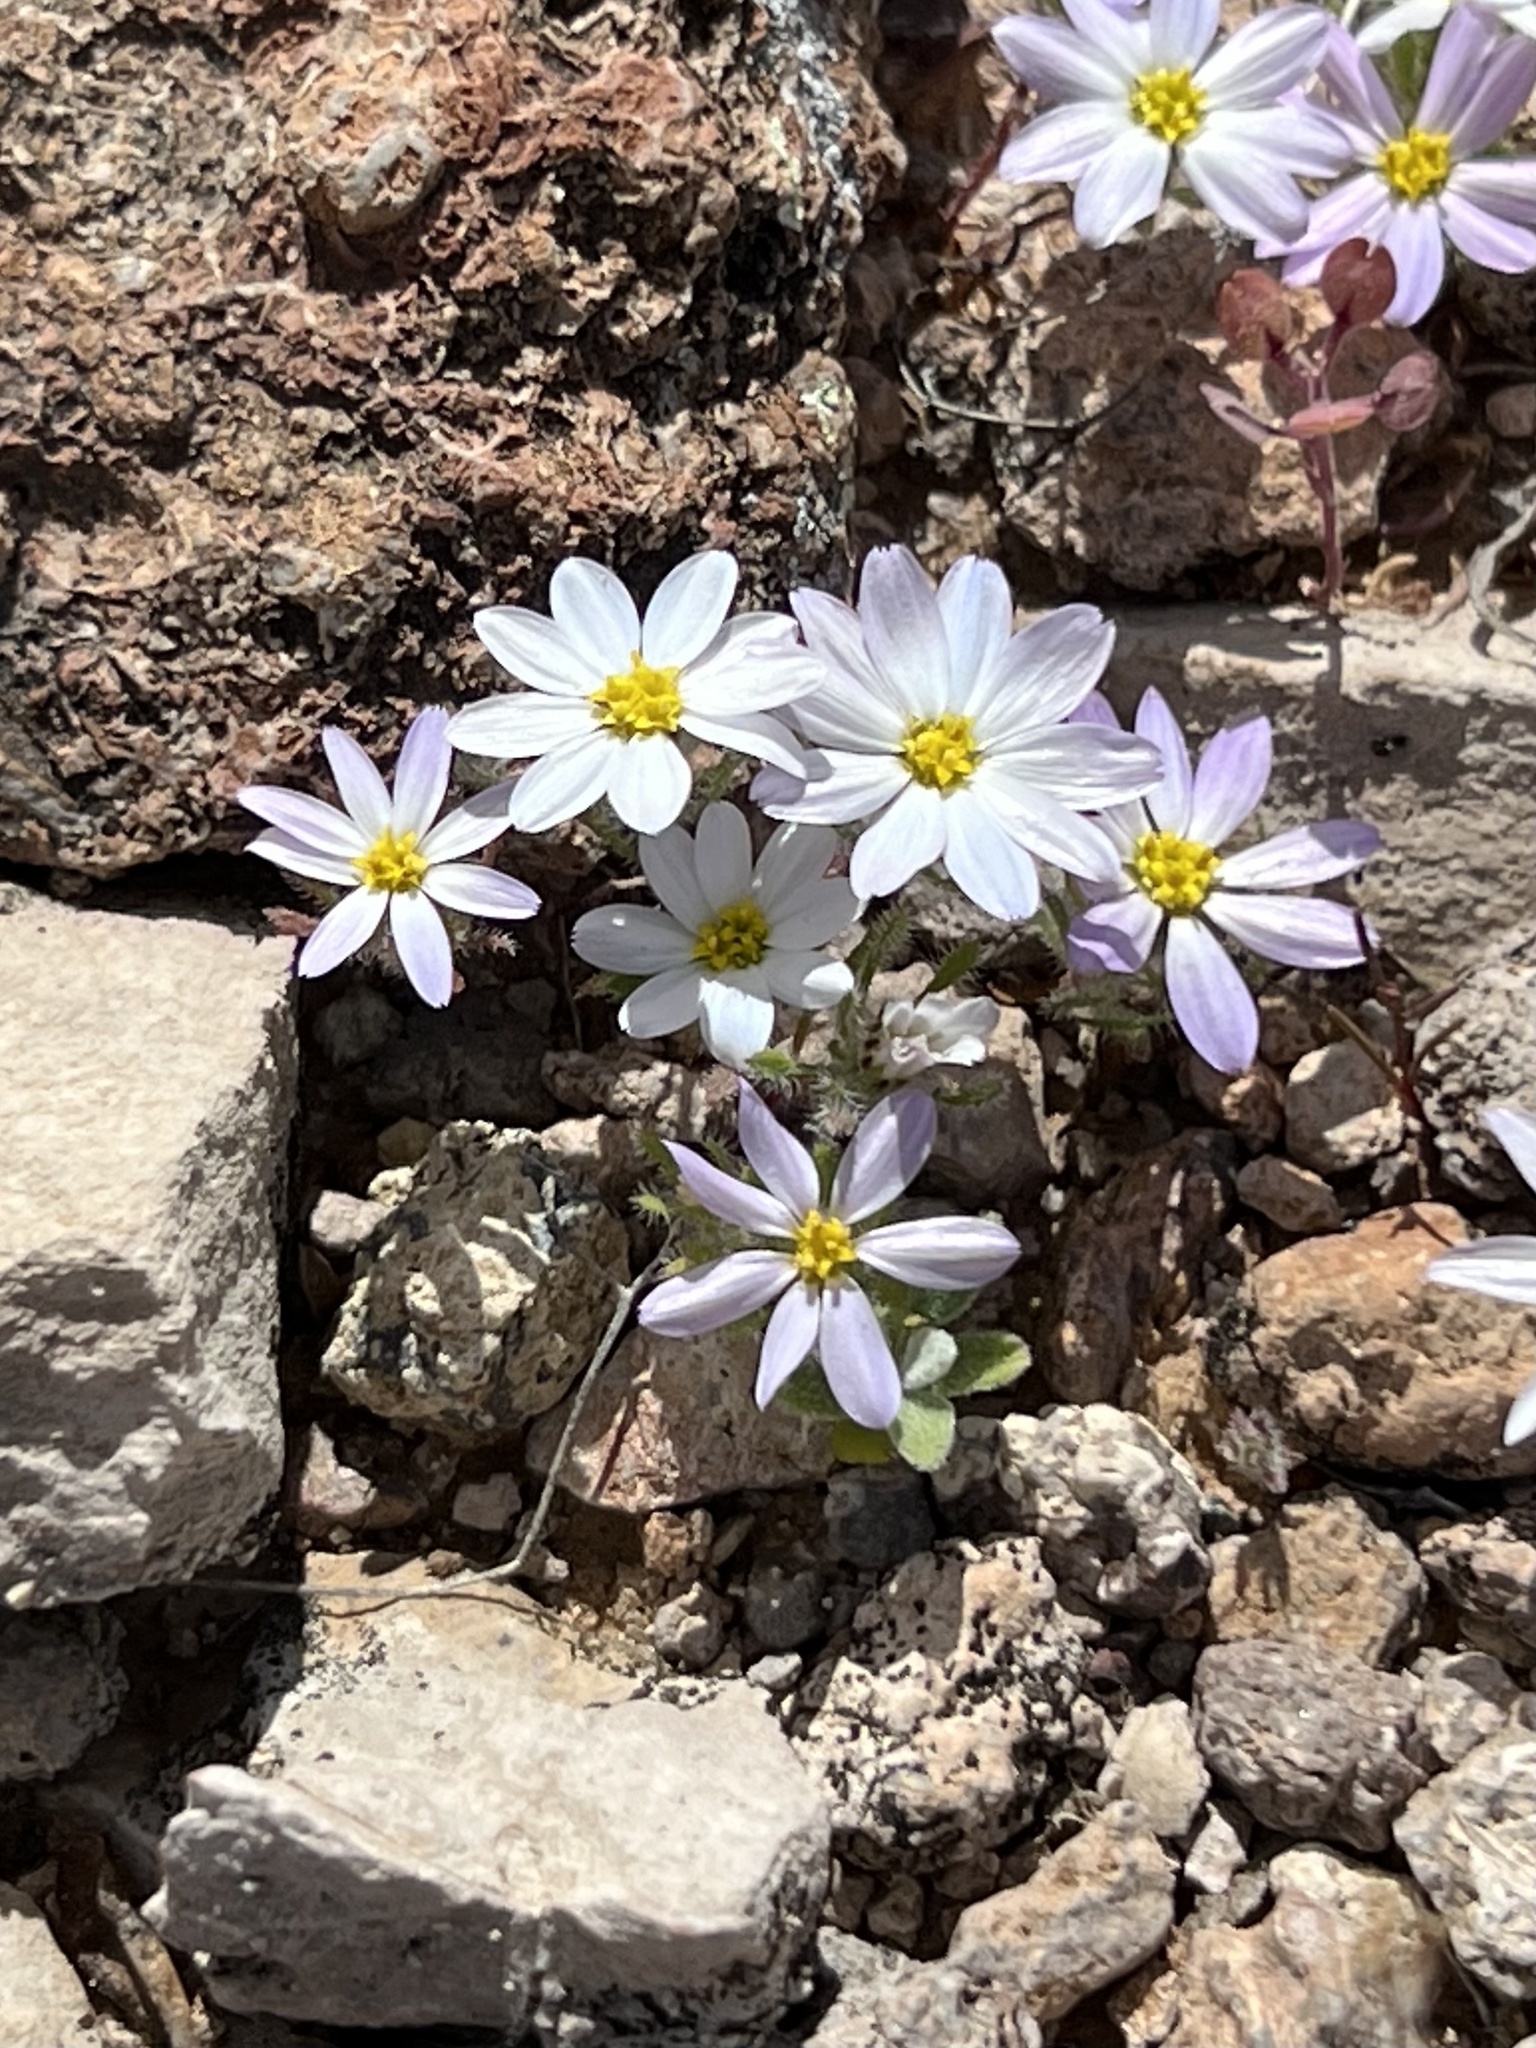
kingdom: Plantae
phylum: Tracheophyta
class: Magnoliopsida
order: Asterales
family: Asteraceae
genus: Monoptilon
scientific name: Monoptilon bellioides
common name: Bristly desertstar
